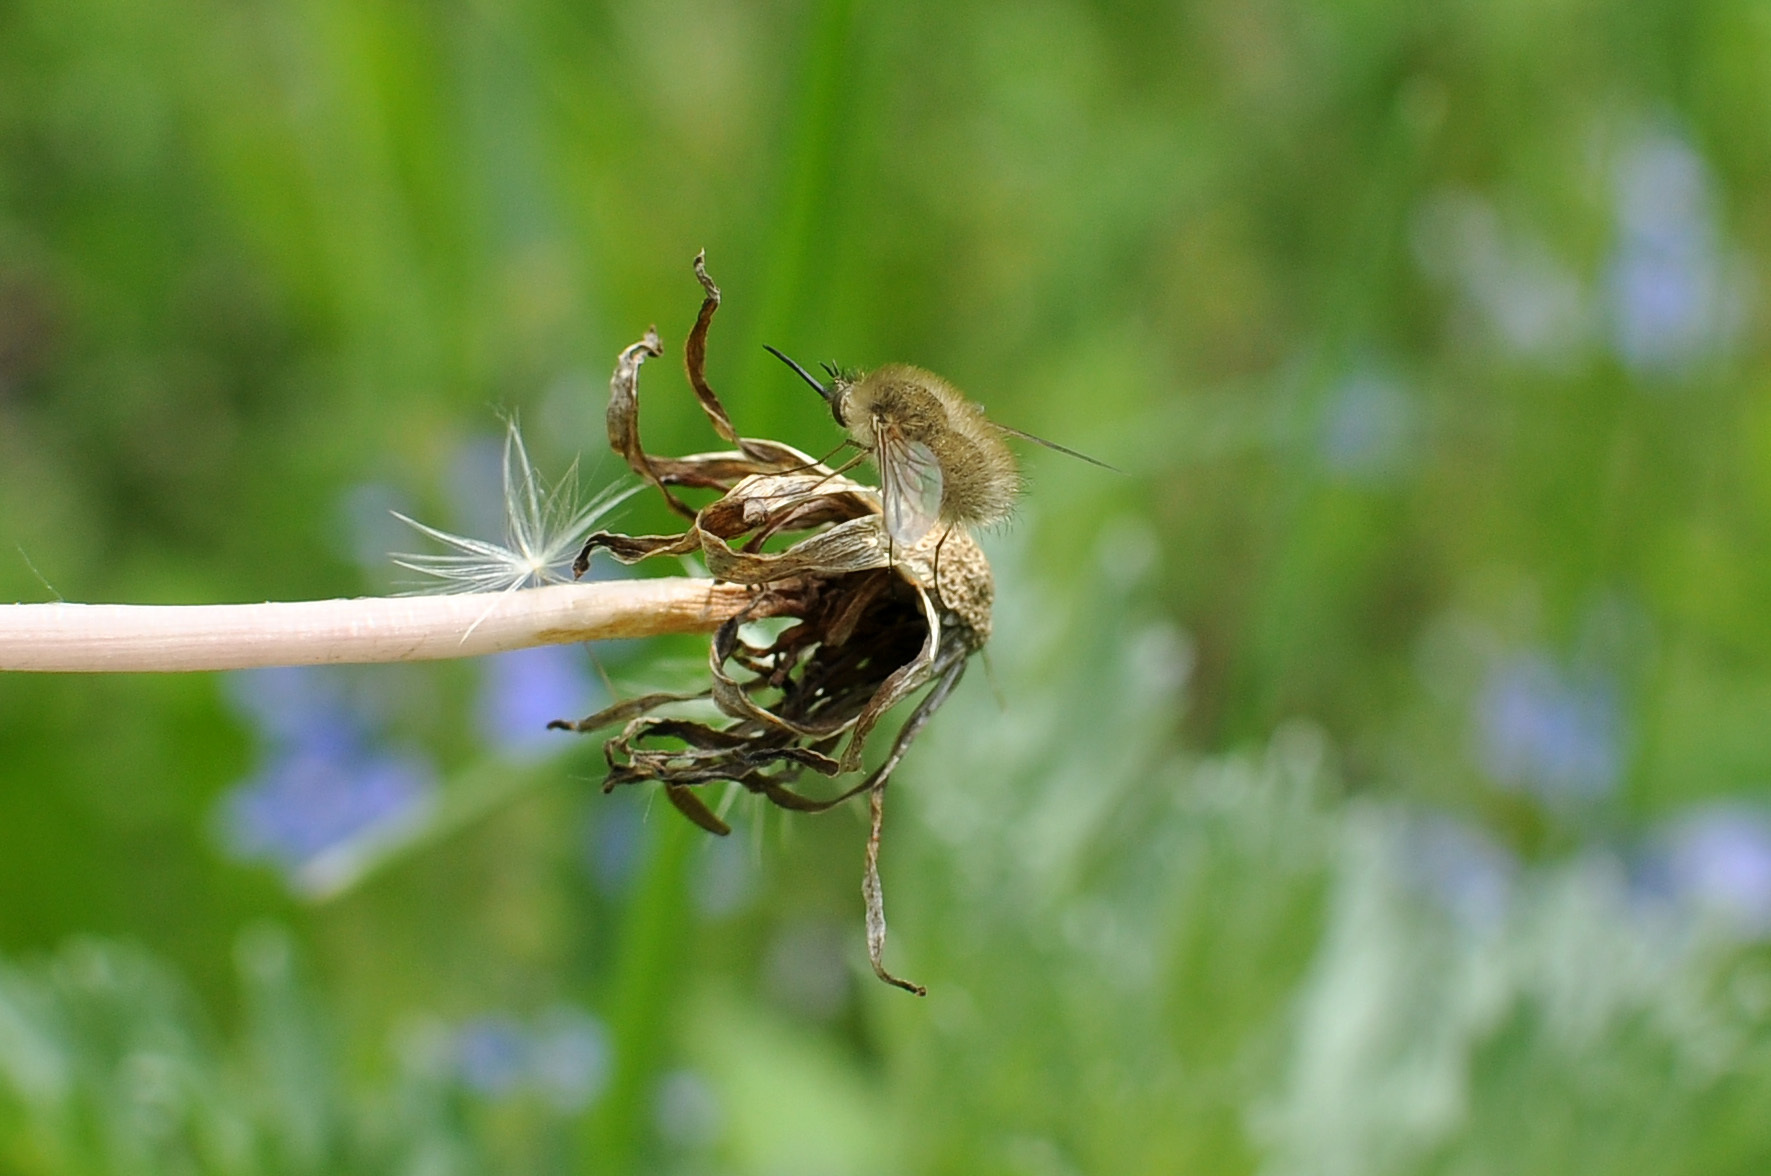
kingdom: Animalia
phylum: Arthropoda
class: Insecta
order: Diptera
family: Bombyliidae
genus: Bombylius
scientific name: Bombylius major
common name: Bee fly
